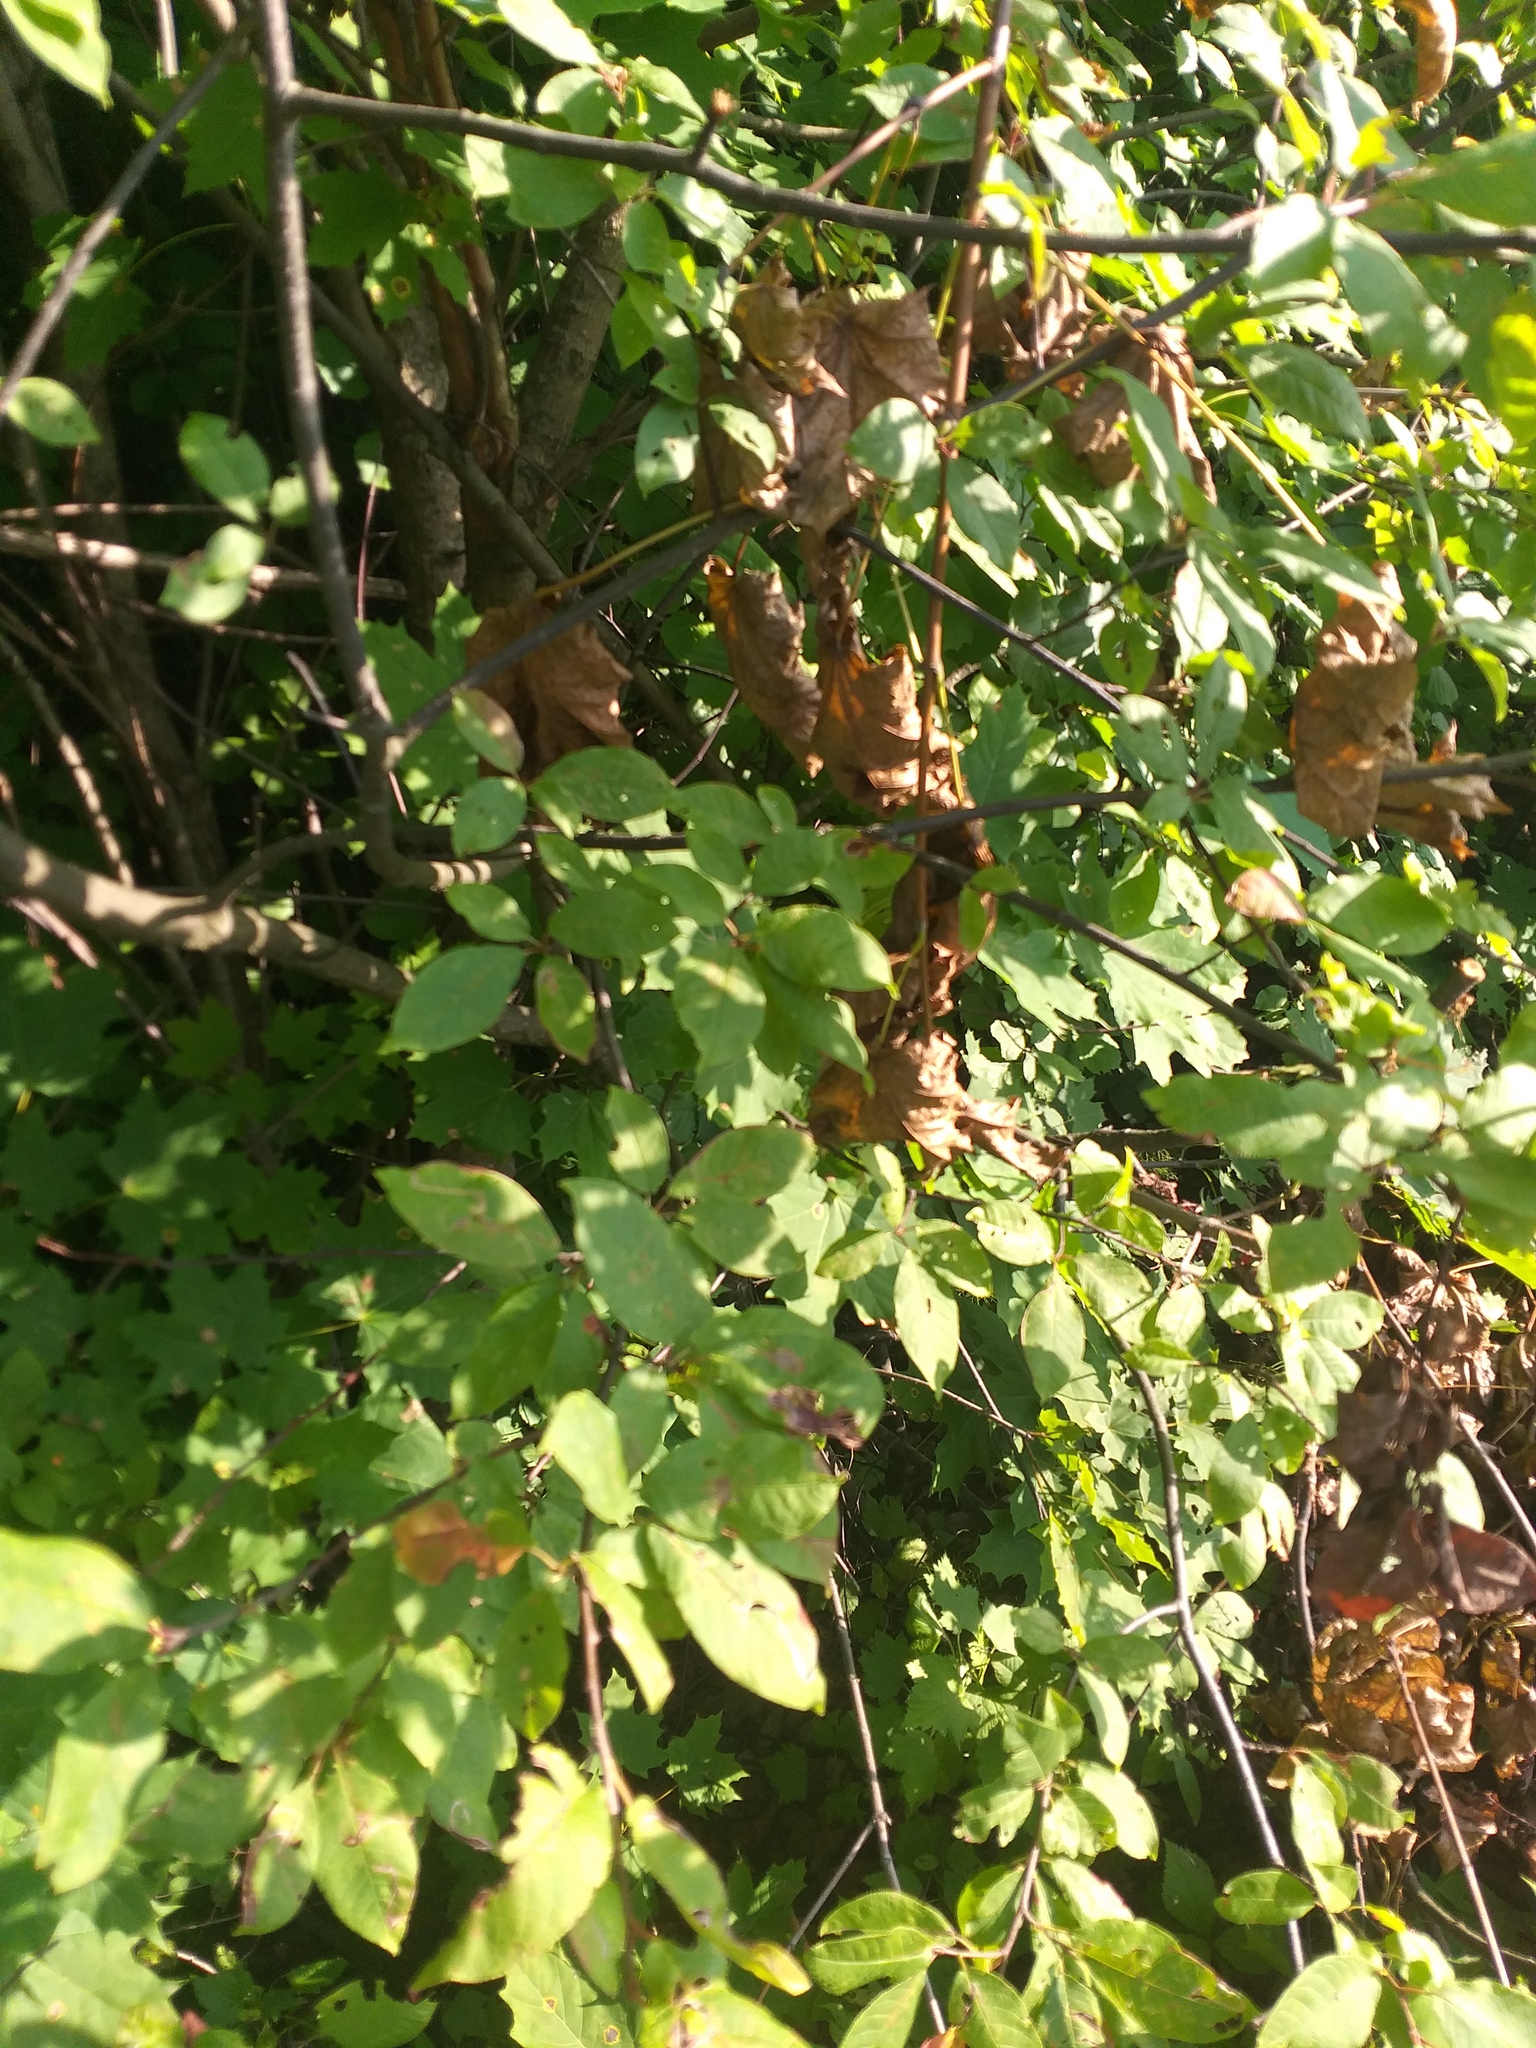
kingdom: Plantae
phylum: Tracheophyta
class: Magnoliopsida
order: Rosales
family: Rosaceae
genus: Prunus
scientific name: Prunus padus
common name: Bird cherry
